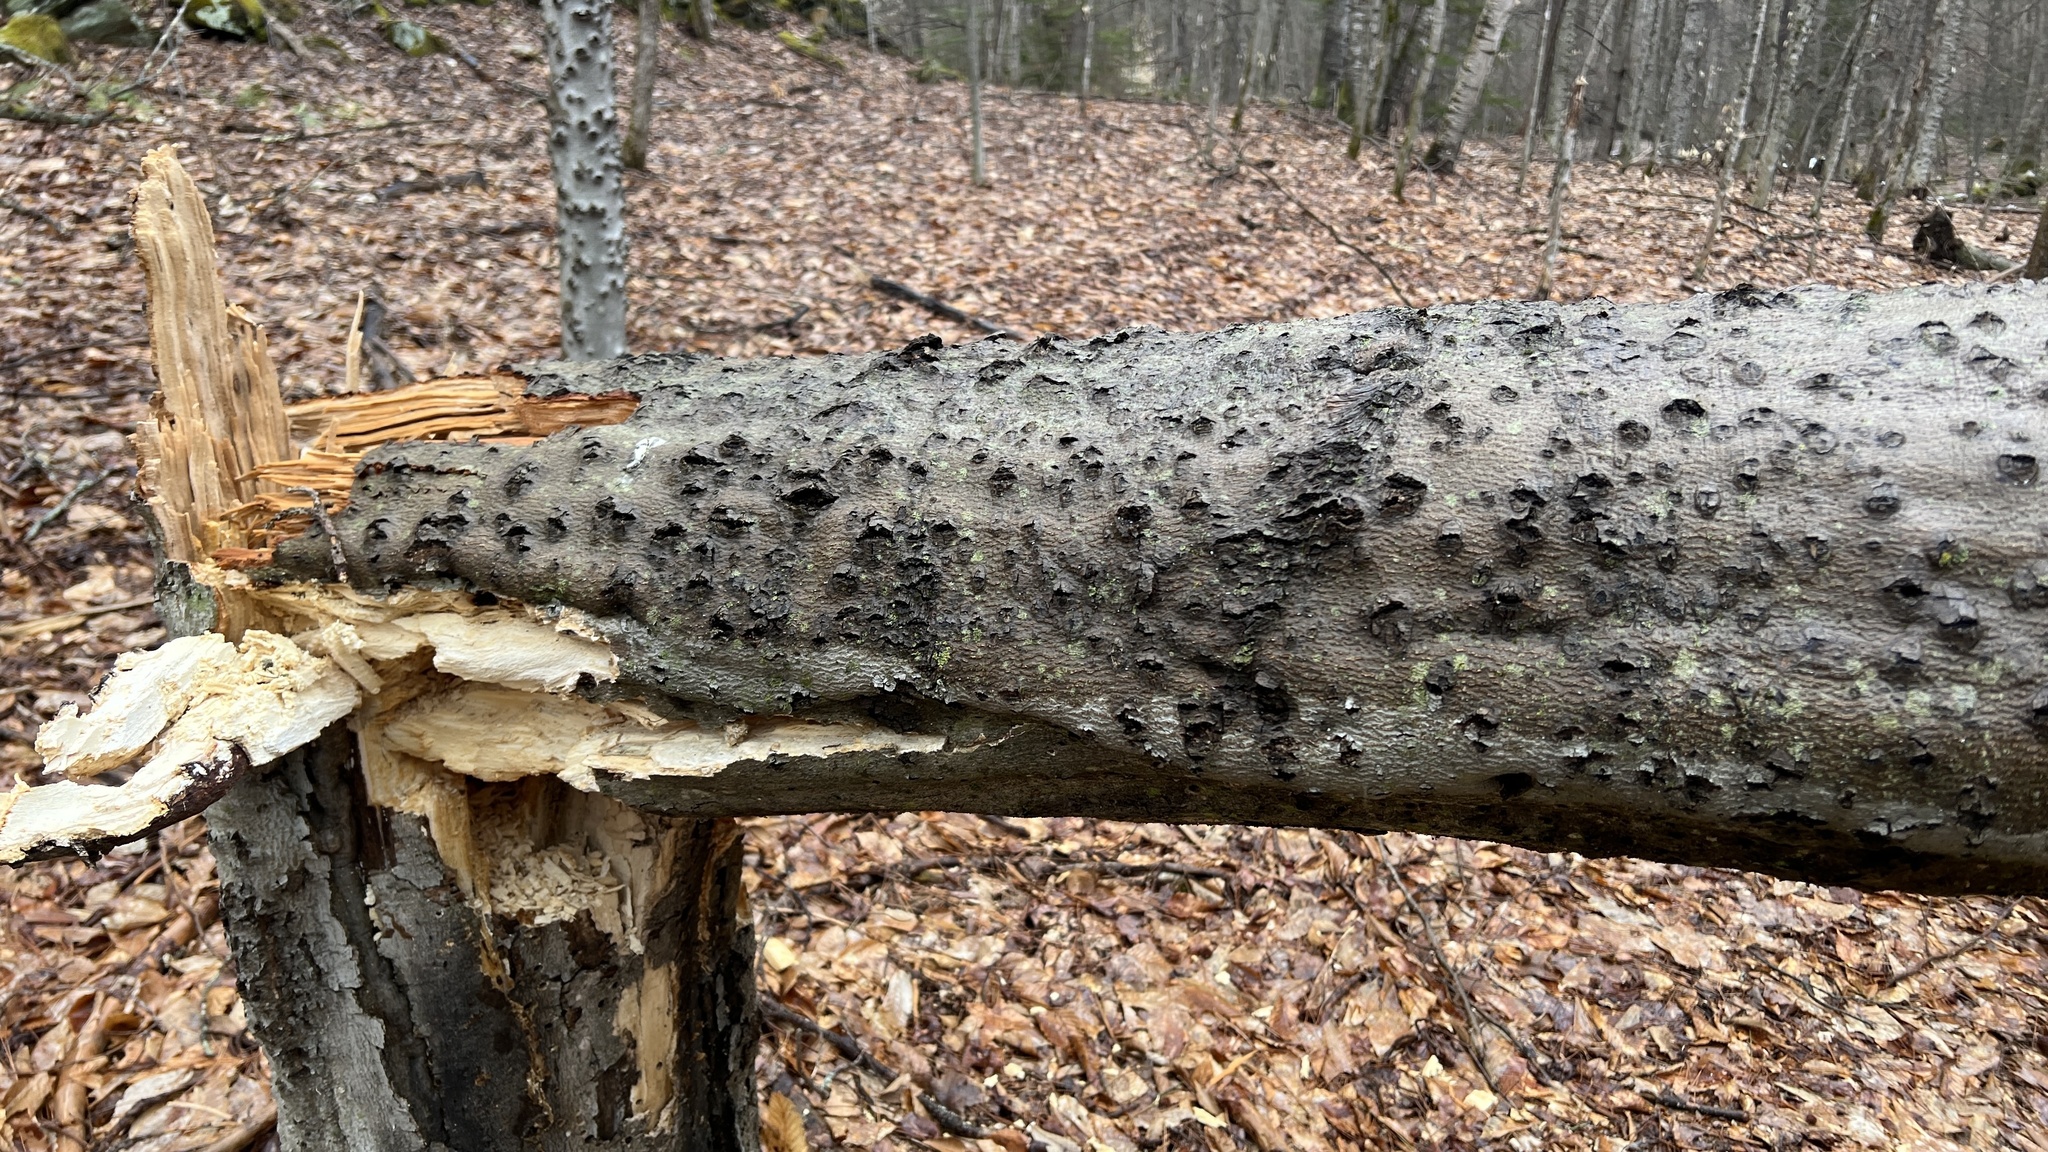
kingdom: Fungi
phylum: Ascomycota
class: Sordariomycetes
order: Hypocreales
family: Nectriaceae
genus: Neonectria
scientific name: Neonectria faginata
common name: Beech bark canker
